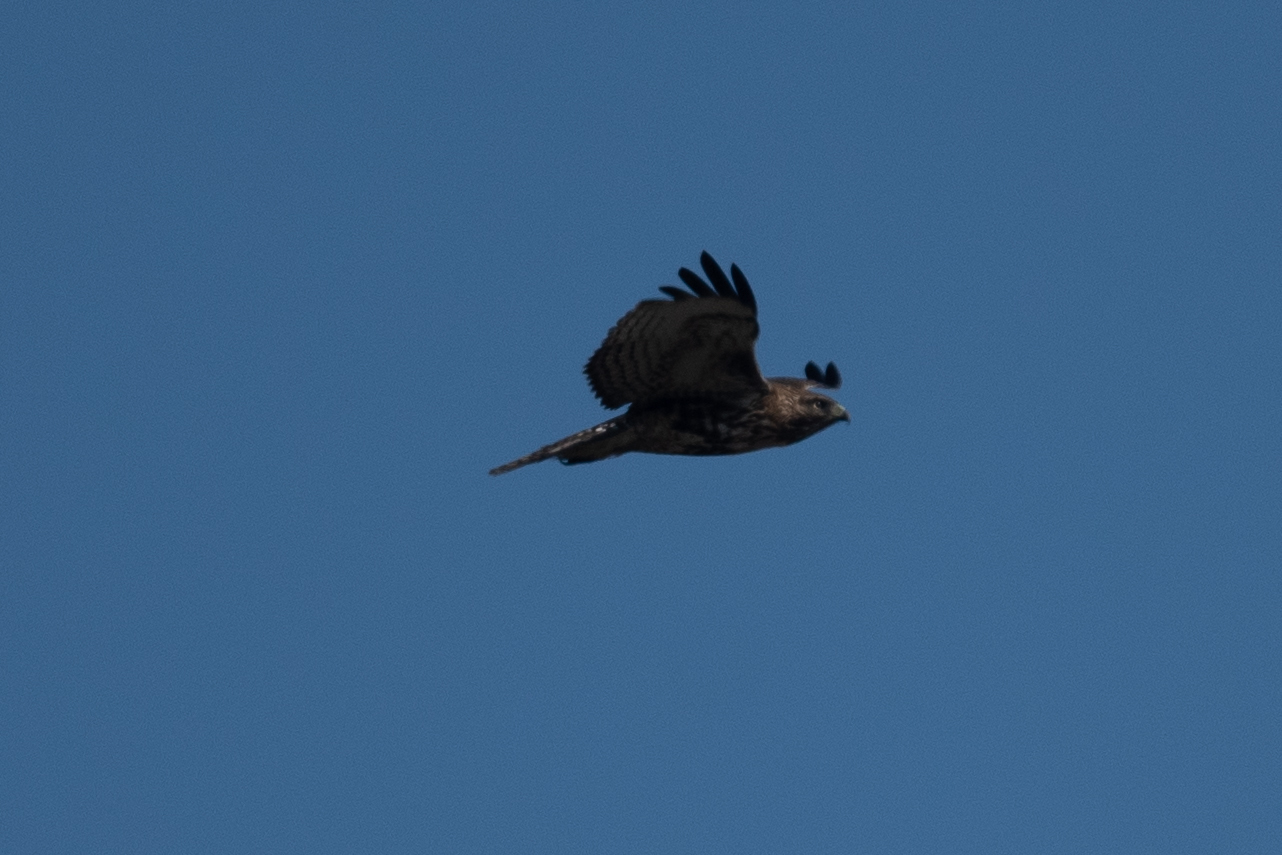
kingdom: Animalia
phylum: Chordata
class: Aves
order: Accipitriformes
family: Accipitridae
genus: Buteo
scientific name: Buteo jamaicensis
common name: Red-tailed hawk
